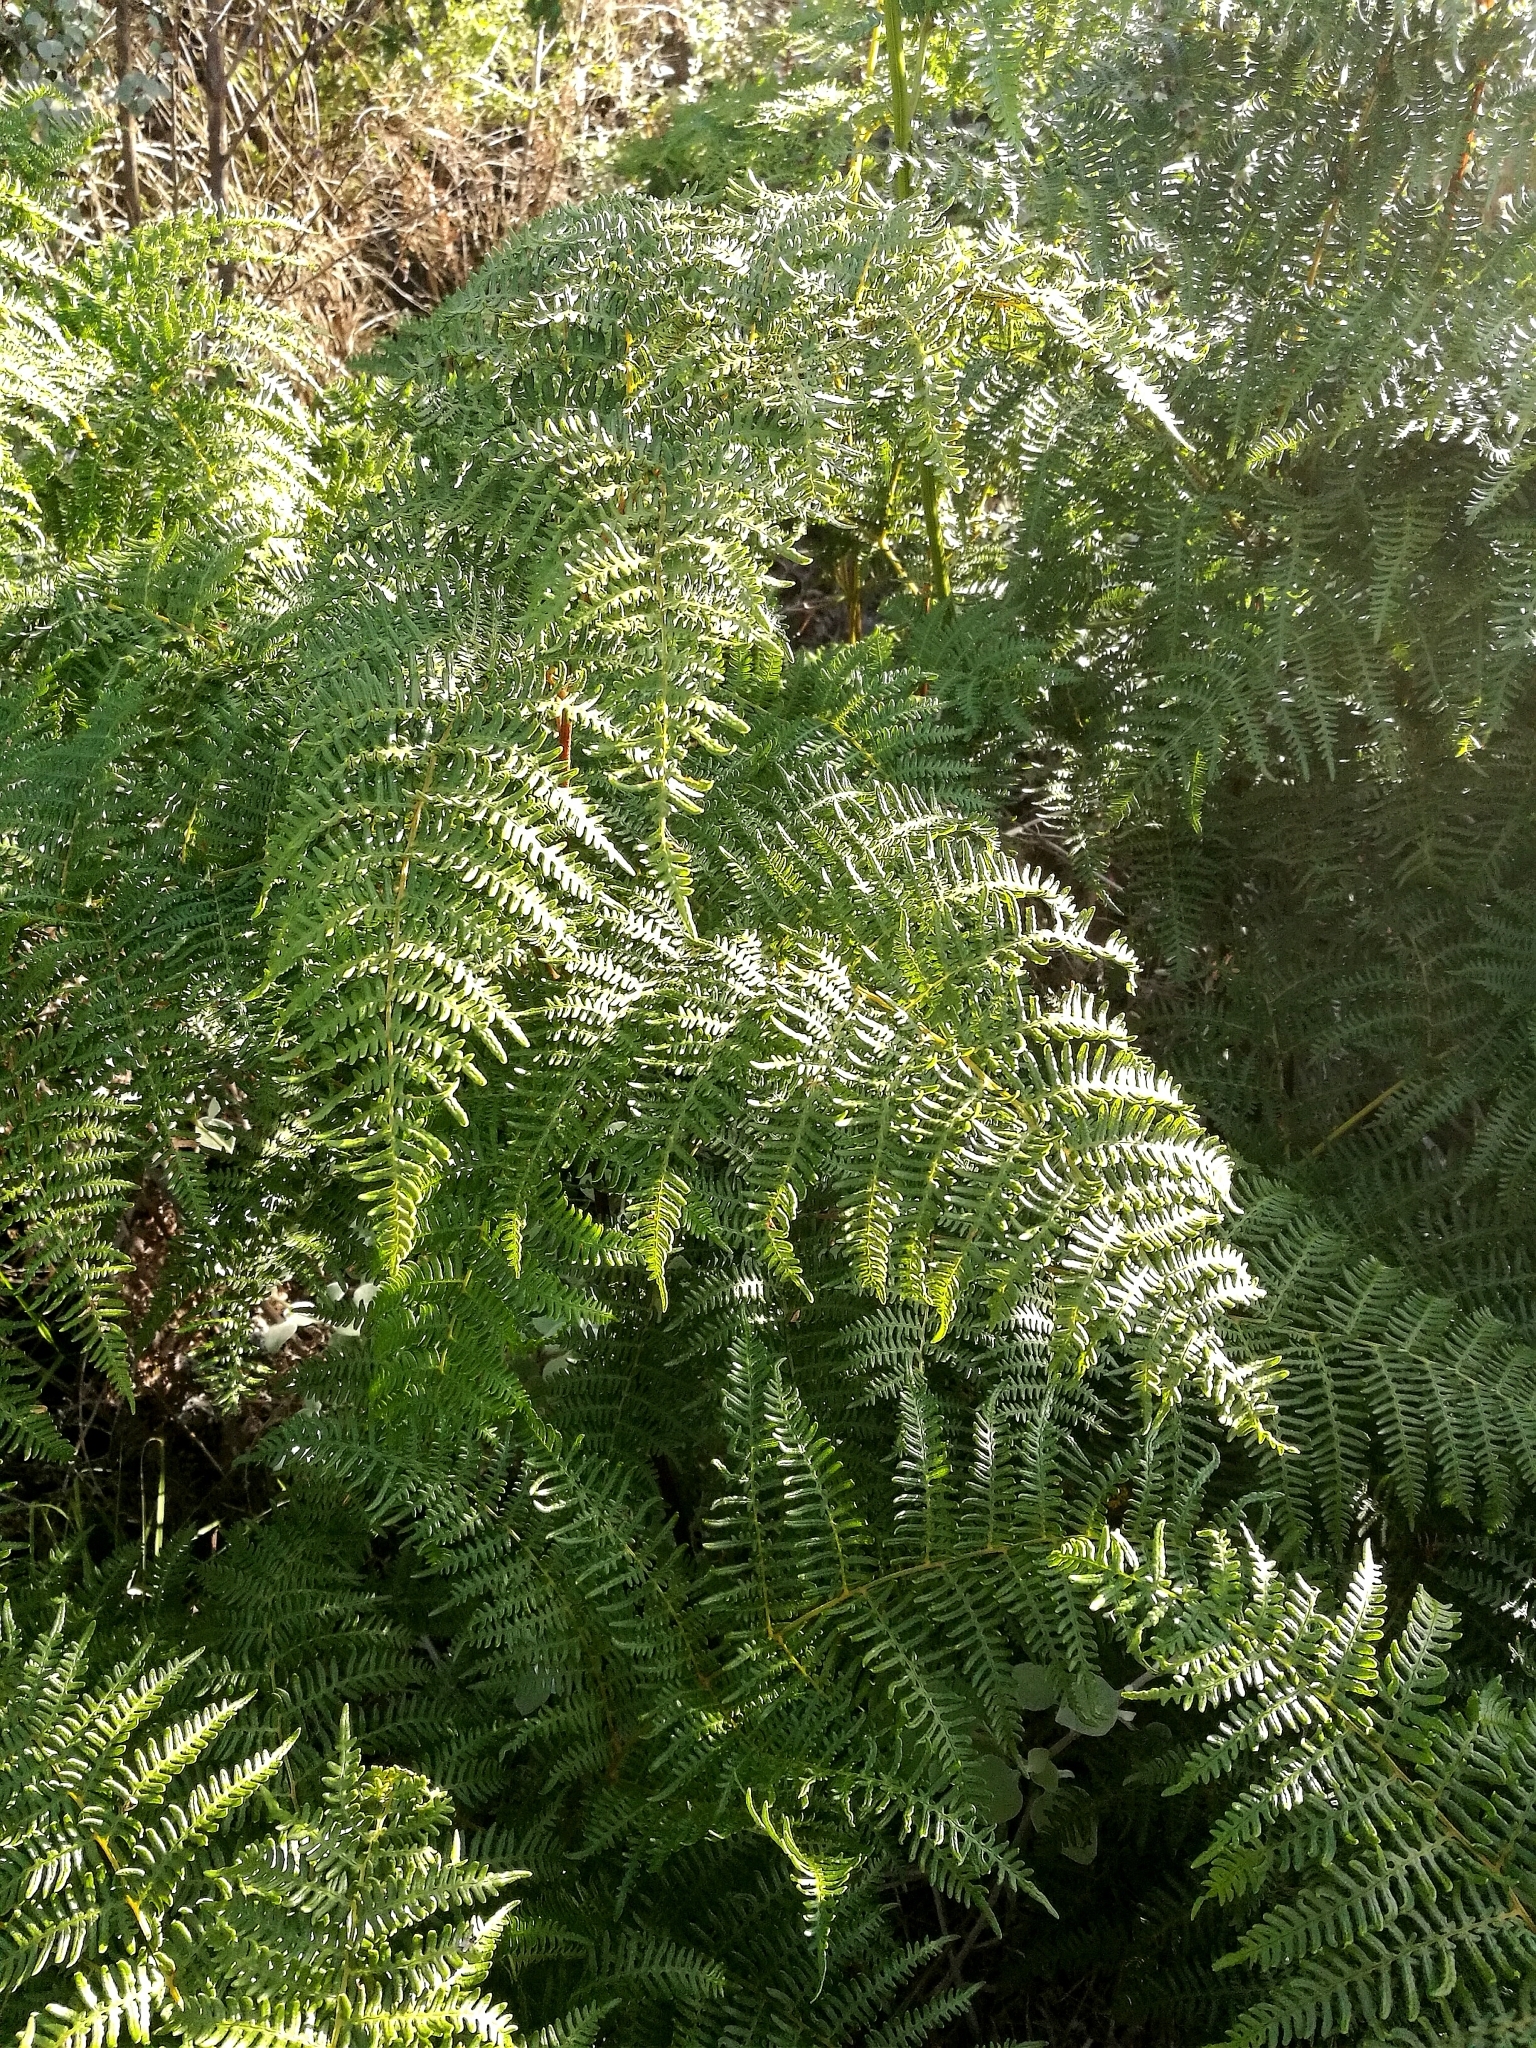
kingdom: Plantae
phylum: Tracheophyta
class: Polypodiopsida
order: Polypodiales
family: Dennstaedtiaceae
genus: Pteridium
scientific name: Pteridium aquilinum
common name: Bracken
